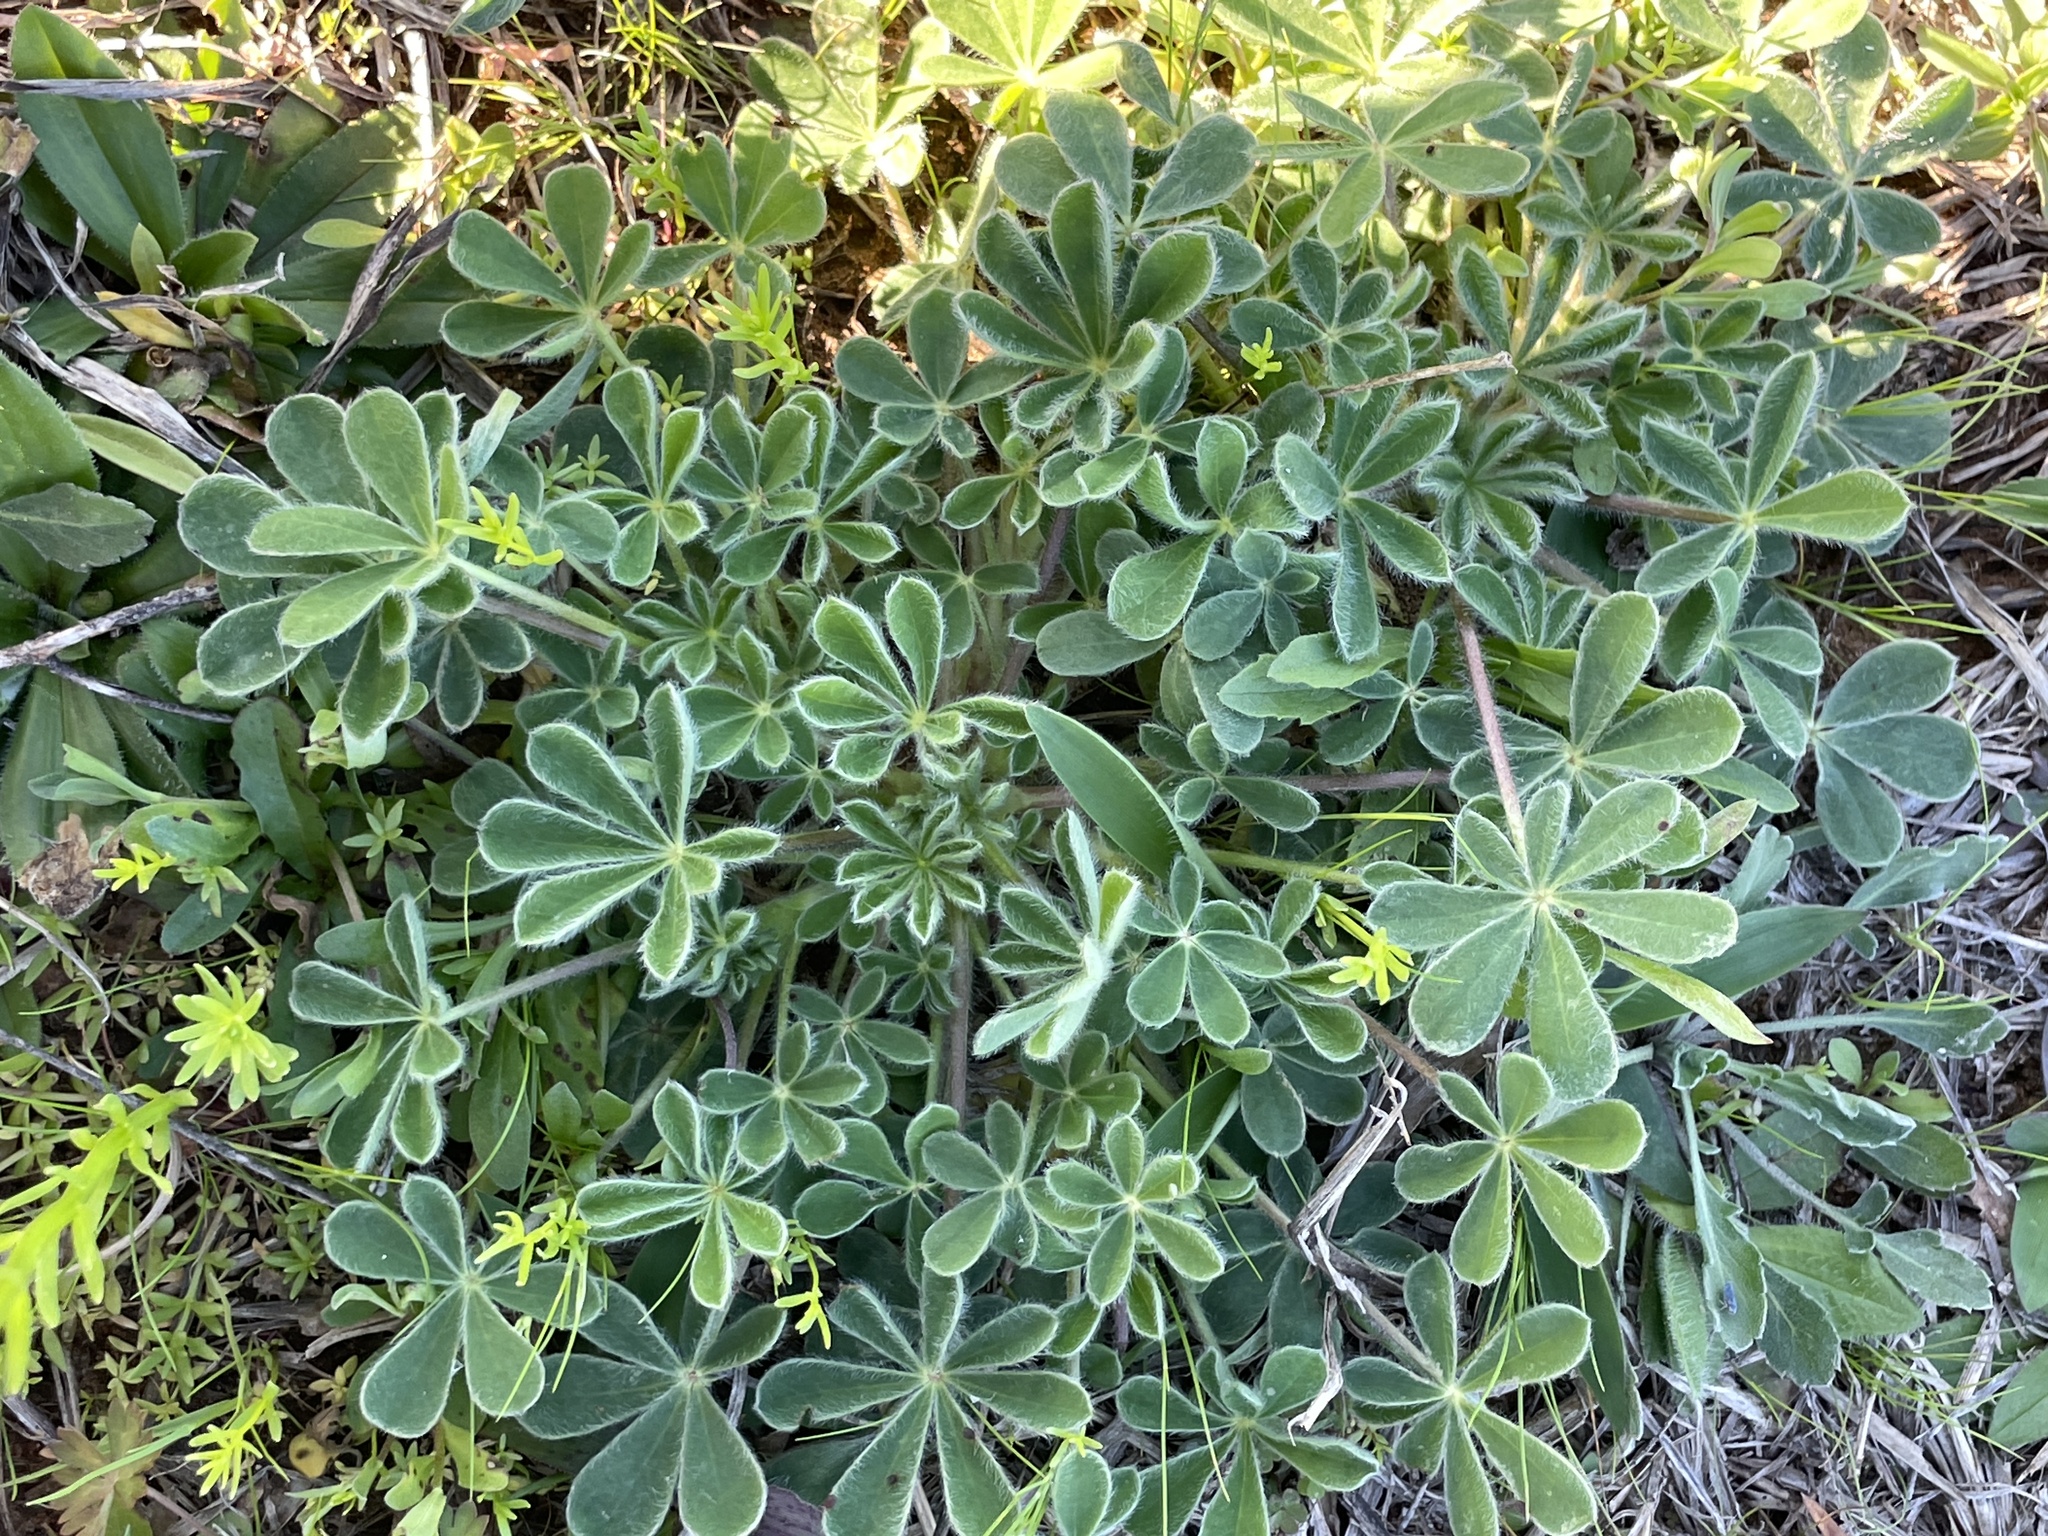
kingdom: Plantae
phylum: Tracheophyta
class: Magnoliopsida
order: Fabales
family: Fabaceae
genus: Lupinus
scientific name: Lupinus subcarnosus
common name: Texas bluebonnet
